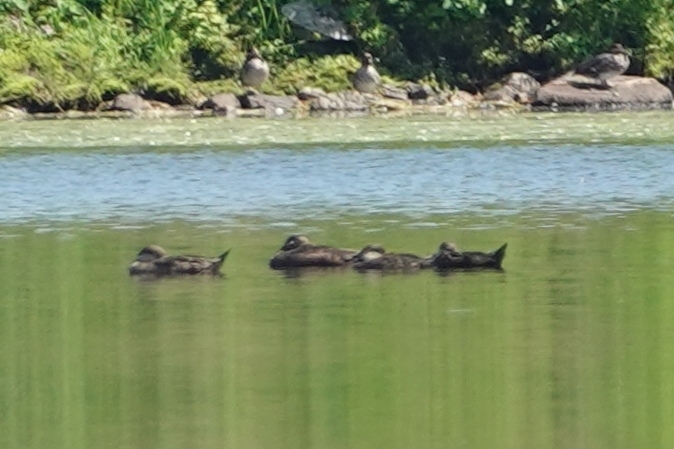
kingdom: Animalia
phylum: Chordata
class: Aves
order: Anseriformes
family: Anatidae
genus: Melanitta
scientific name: Melanitta americana
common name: Black scoter
